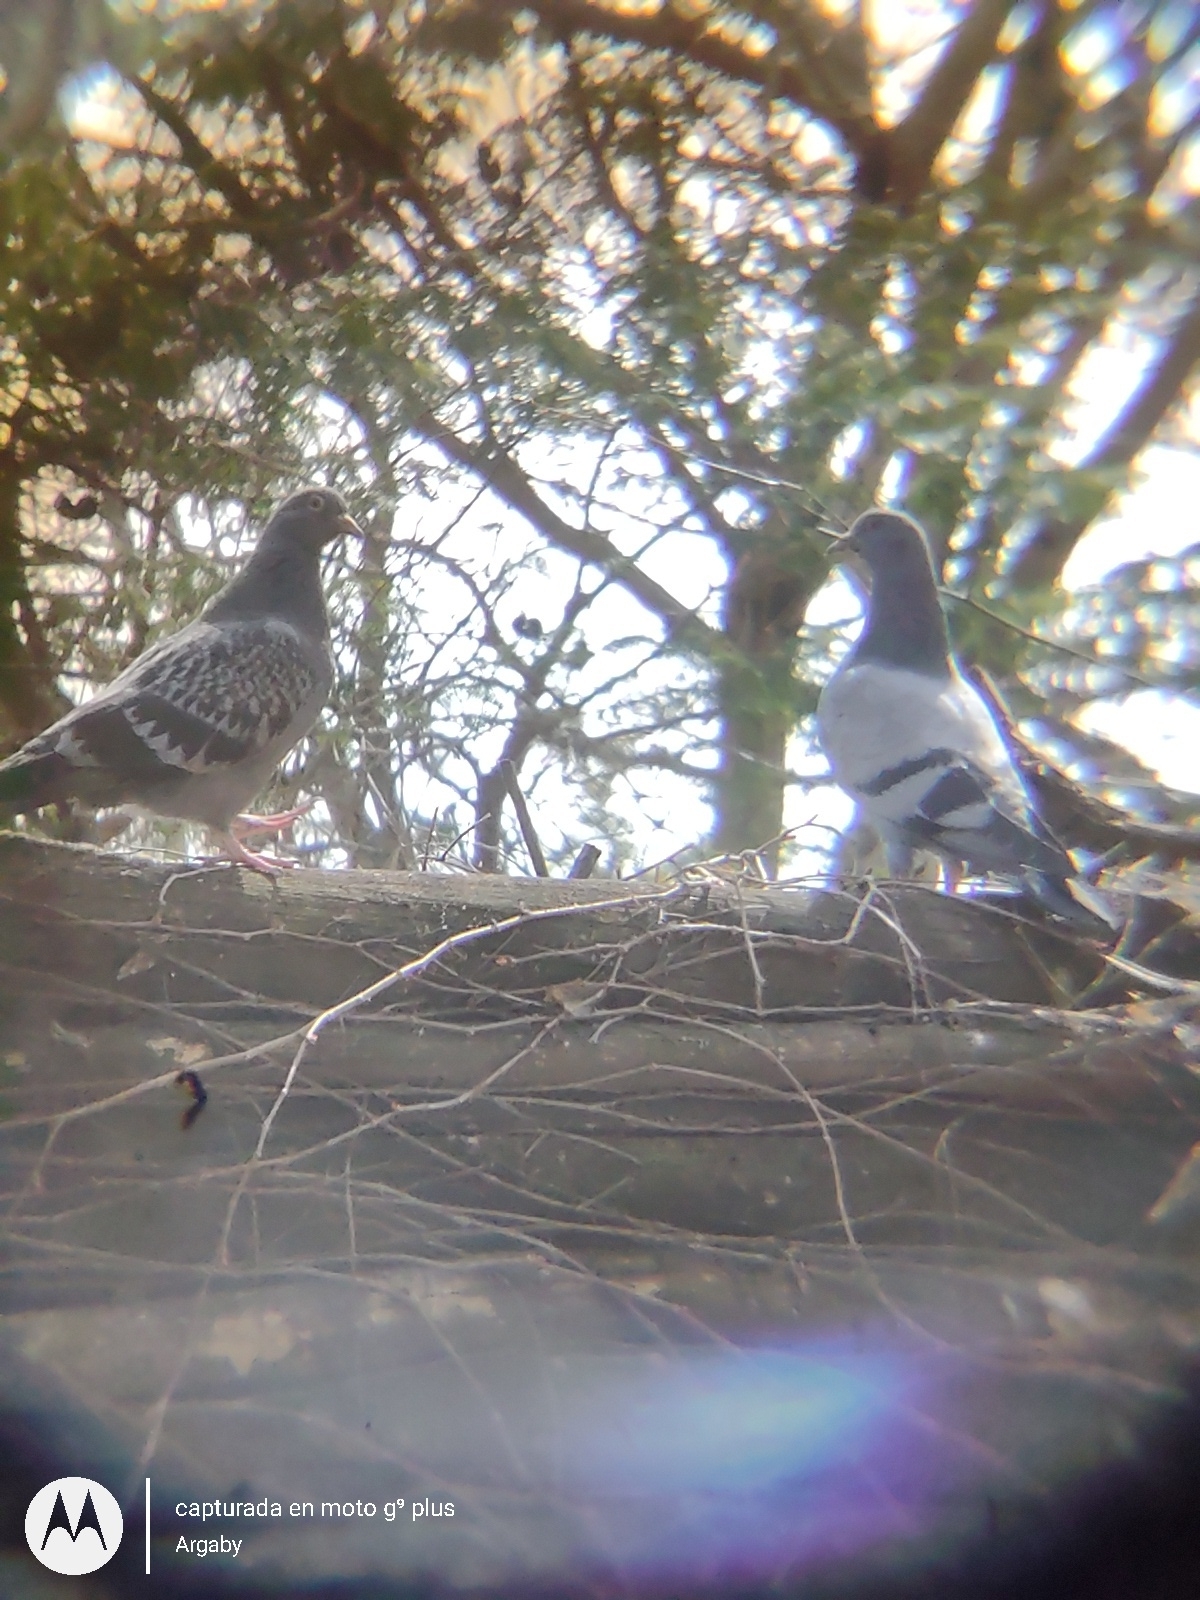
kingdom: Animalia
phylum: Chordata
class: Aves
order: Columbiformes
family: Columbidae
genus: Columba
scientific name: Columba livia
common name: Rock pigeon
